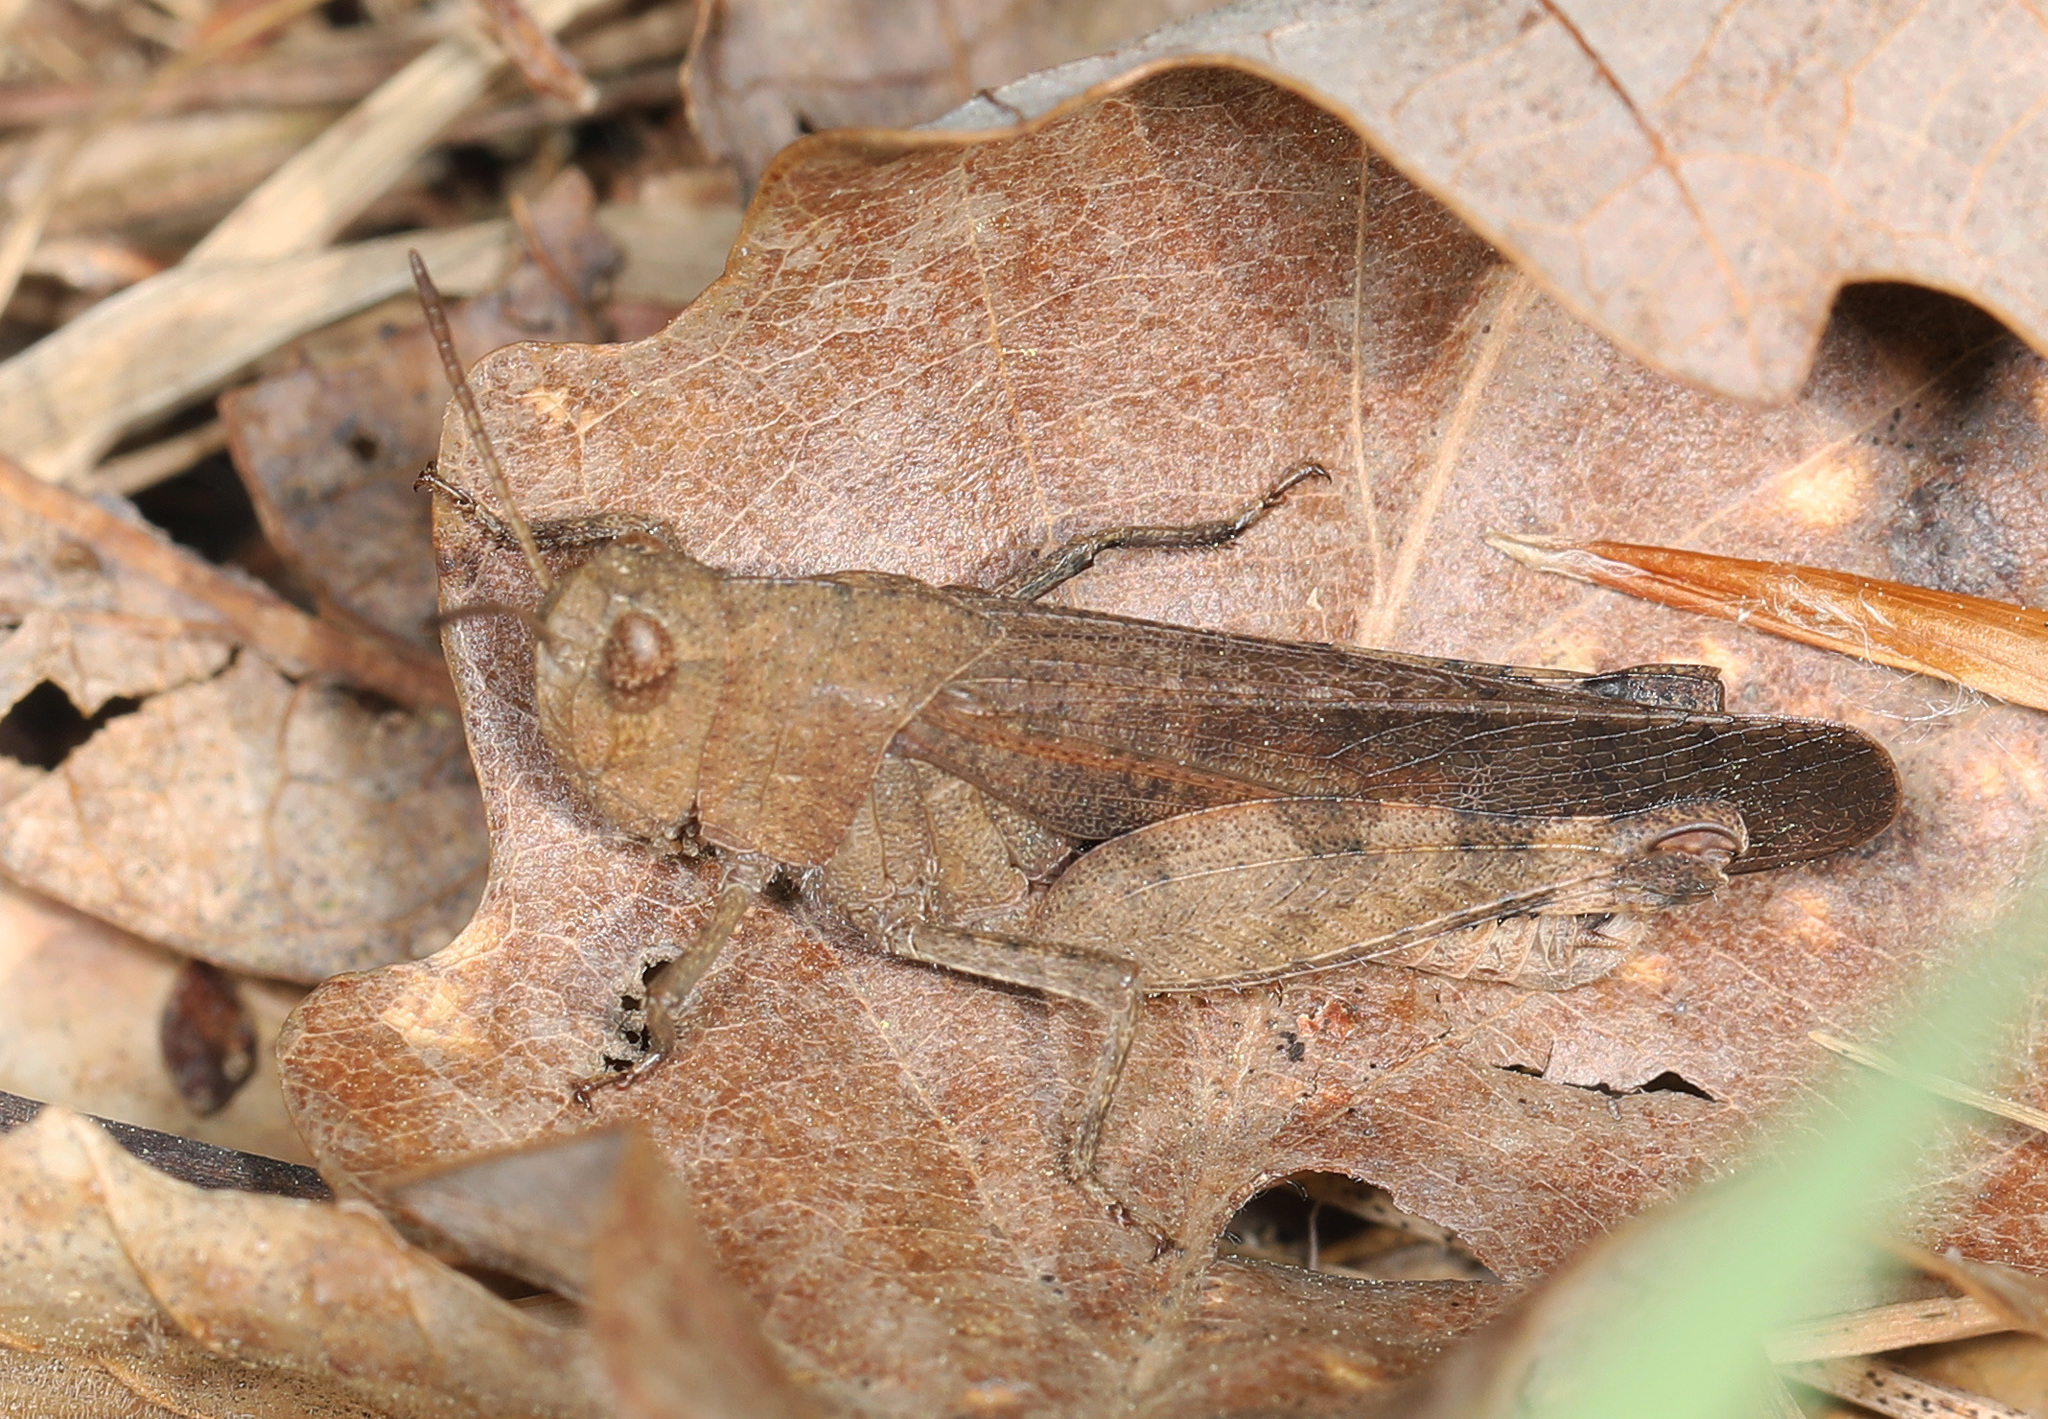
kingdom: Animalia
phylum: Arthropoda
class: Insecta
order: Orthoptera
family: Acrididae
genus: Arphia
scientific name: Arphia sulphurea
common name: Spring yellow-winged locust
